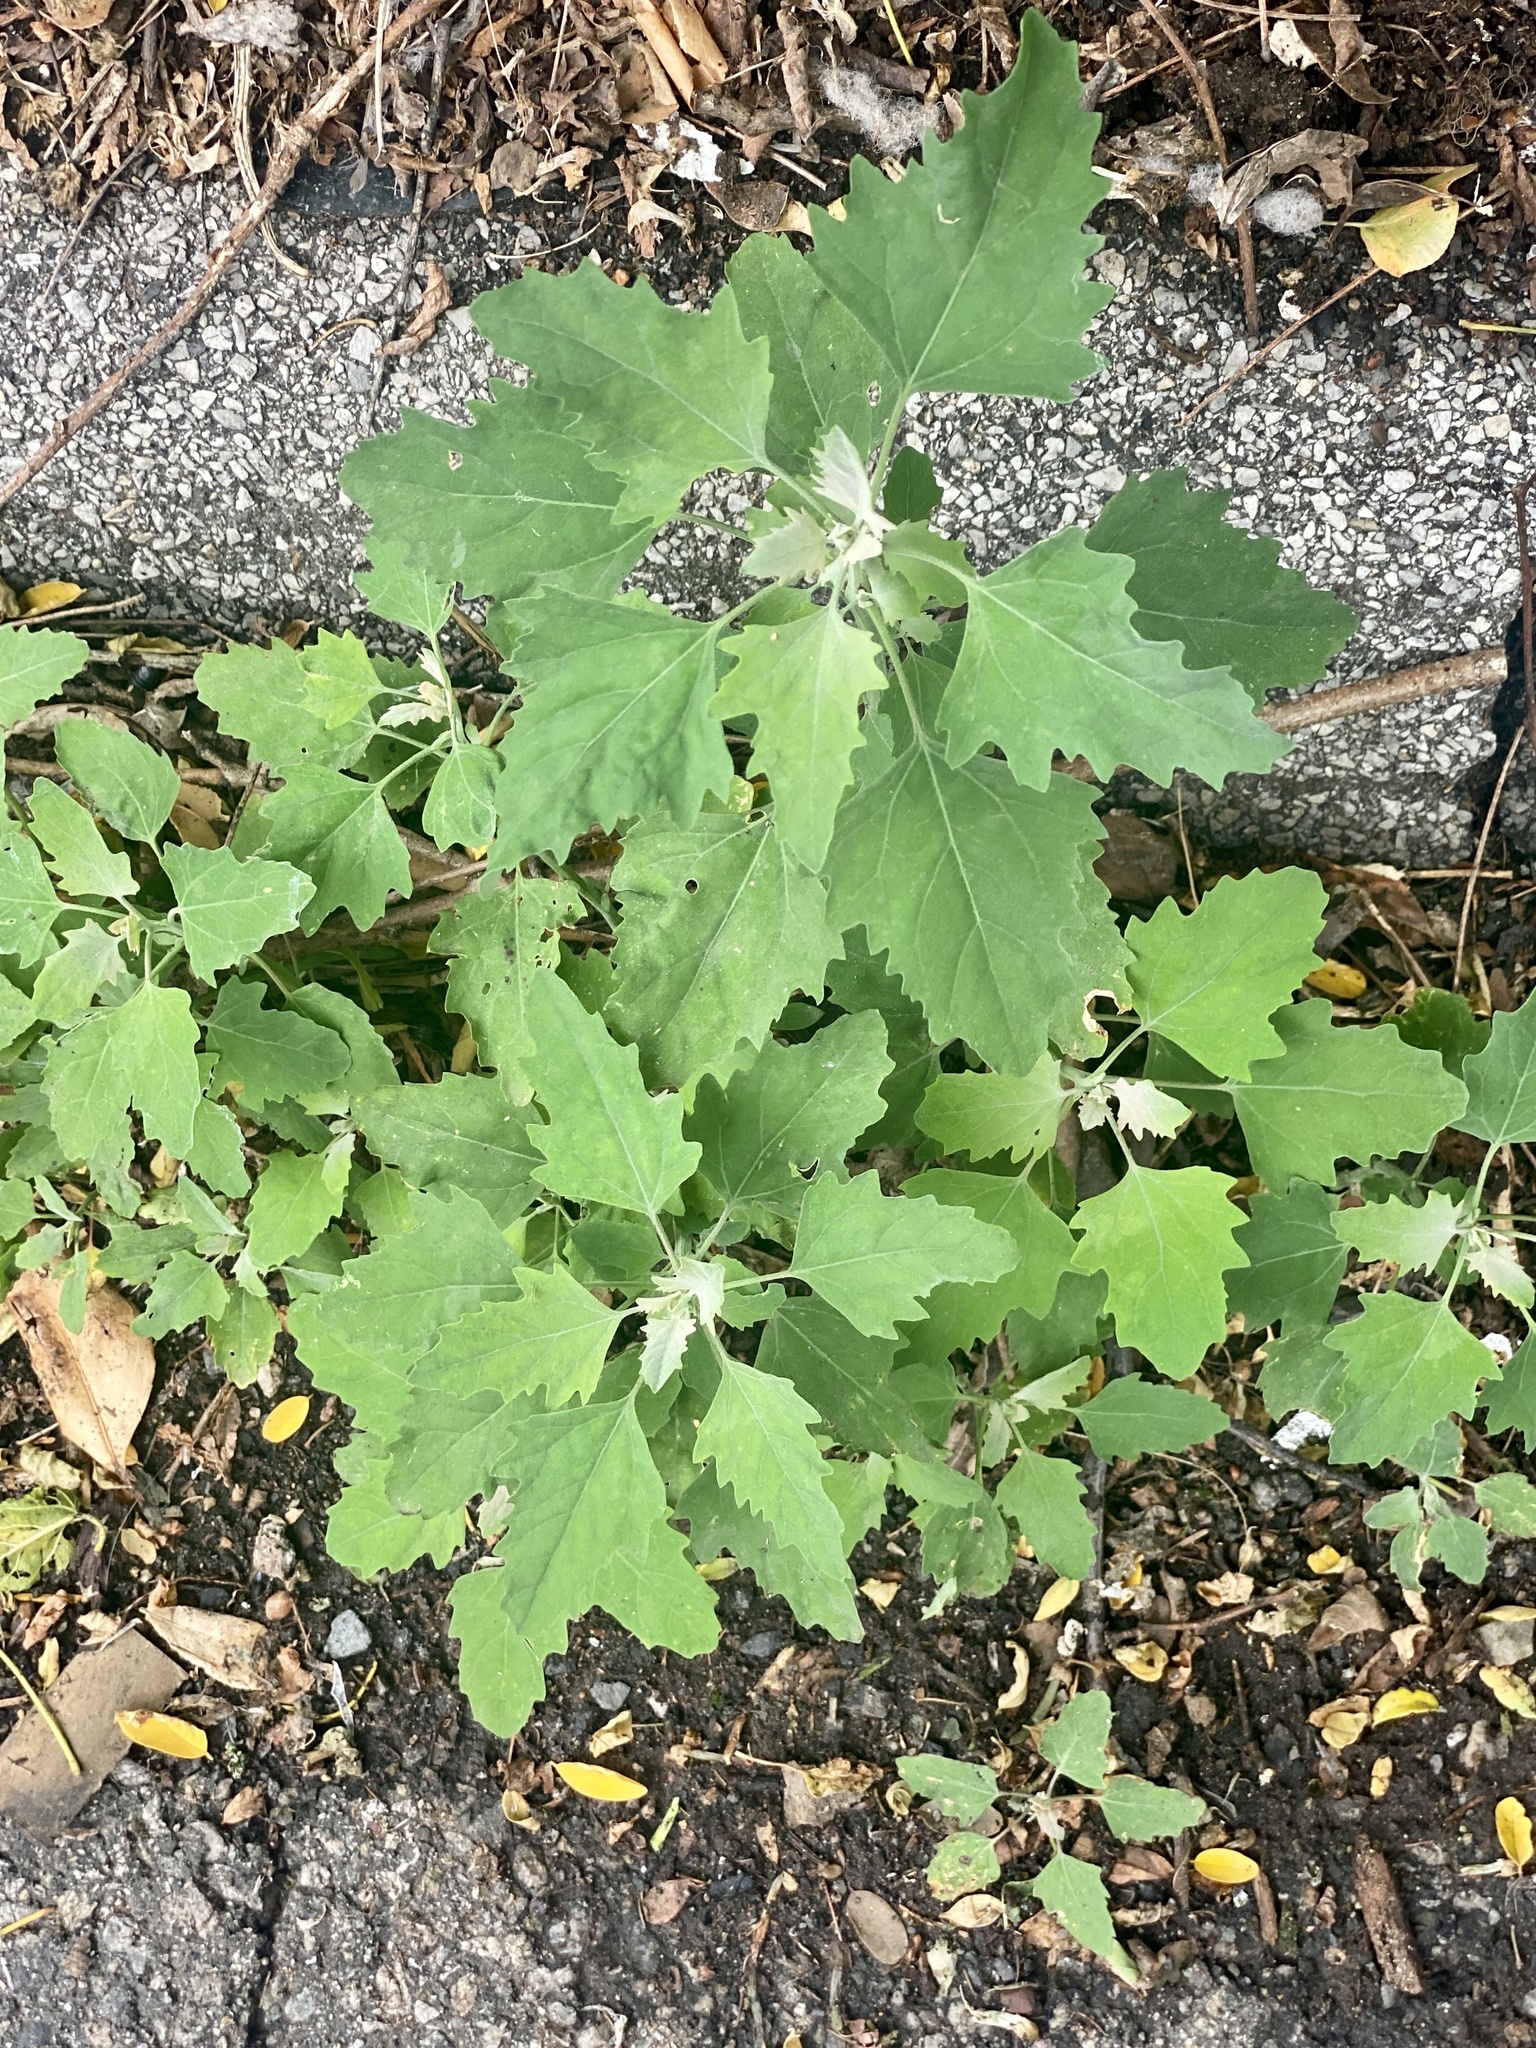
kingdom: Plantae
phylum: Tracheophyta
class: Magnoliopsida
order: Caryophyllales
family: Amaranthaceae
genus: Chenopodium
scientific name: Chenopodium album
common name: Fat-hen
